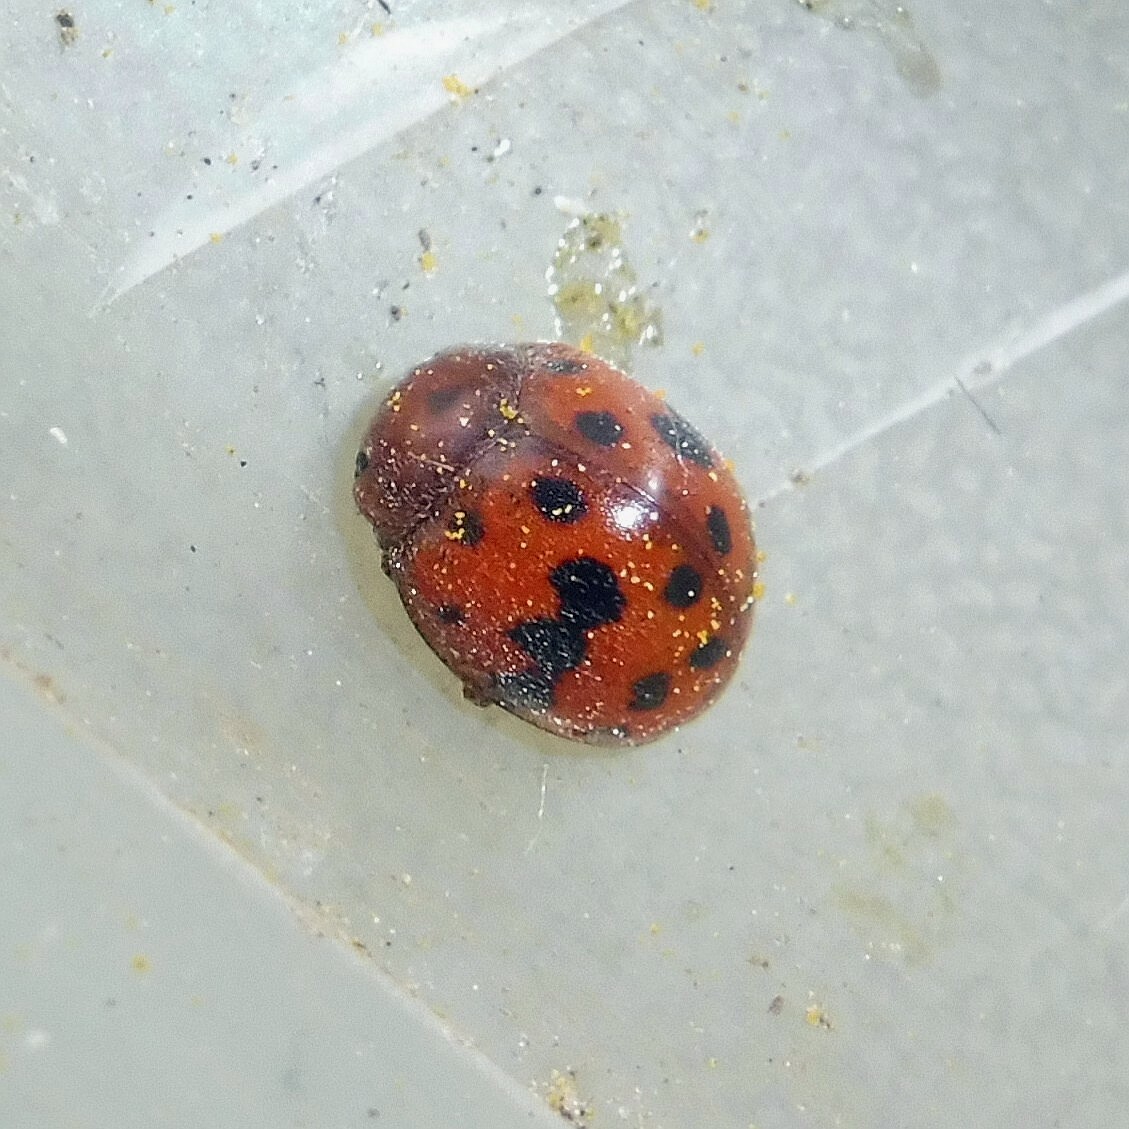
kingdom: Animalia
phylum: Arthropoda
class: Insecta
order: Coleoptera
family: Coccinellidae
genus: Subcoccinella
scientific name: Subcoccinella vigintiquatuorpunctata
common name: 24-spot ladybird
